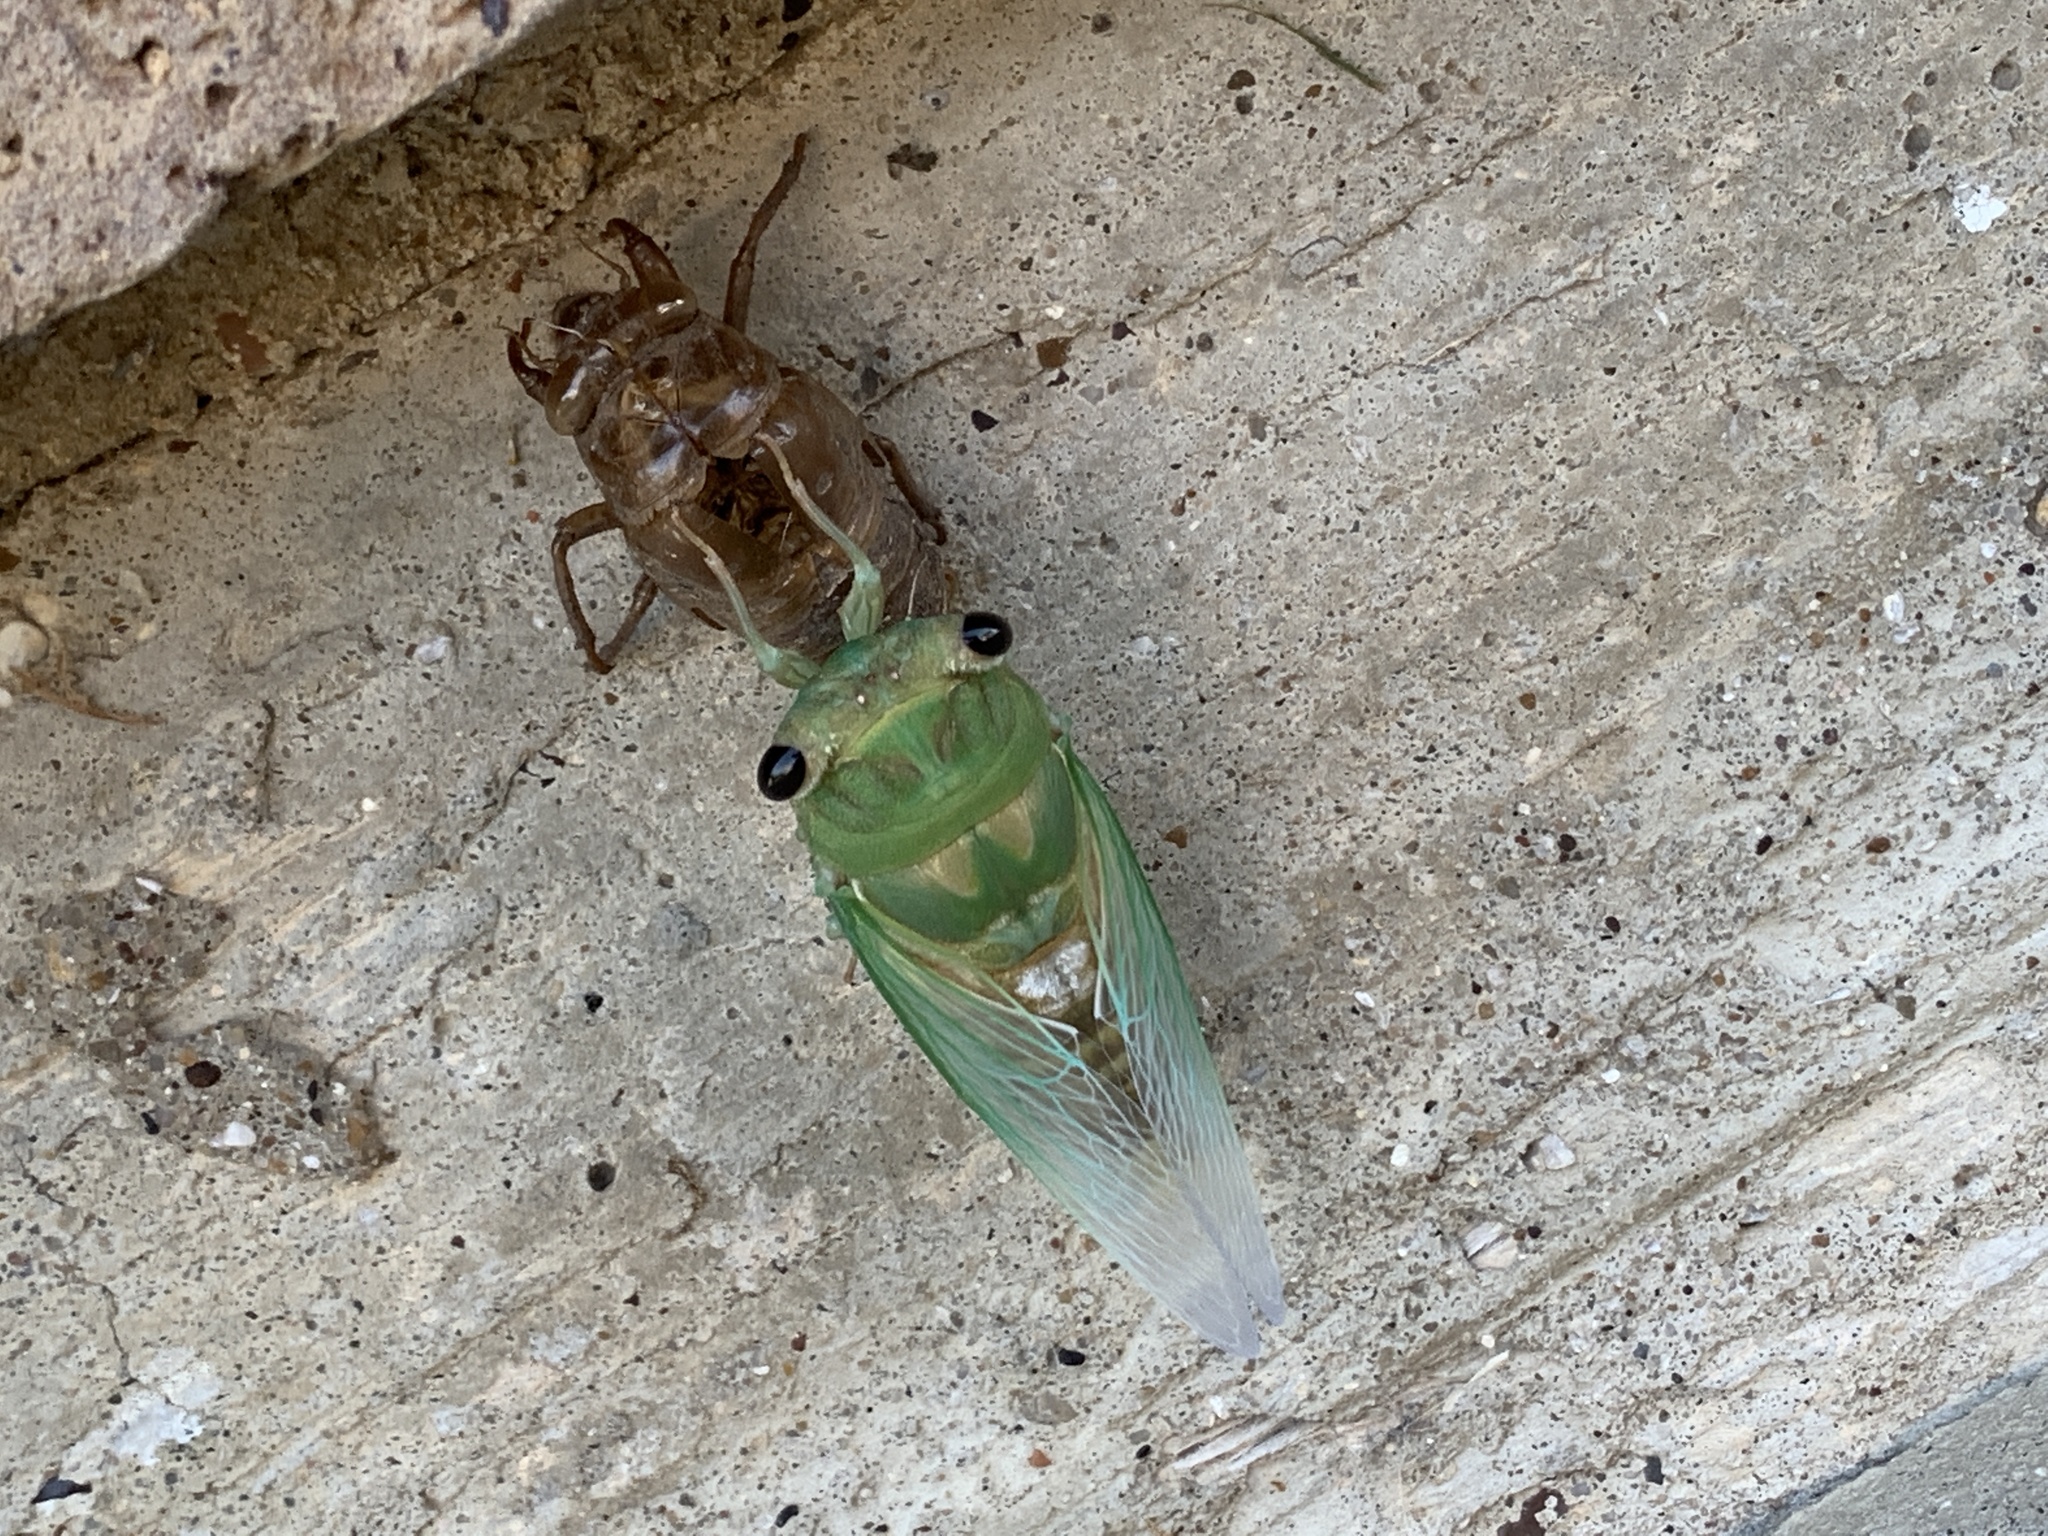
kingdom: Animalia
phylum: Arthropoda
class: Insecta
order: Hemiptera
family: Cicadidae
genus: Neotibicen
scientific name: Neotibicen superbus
